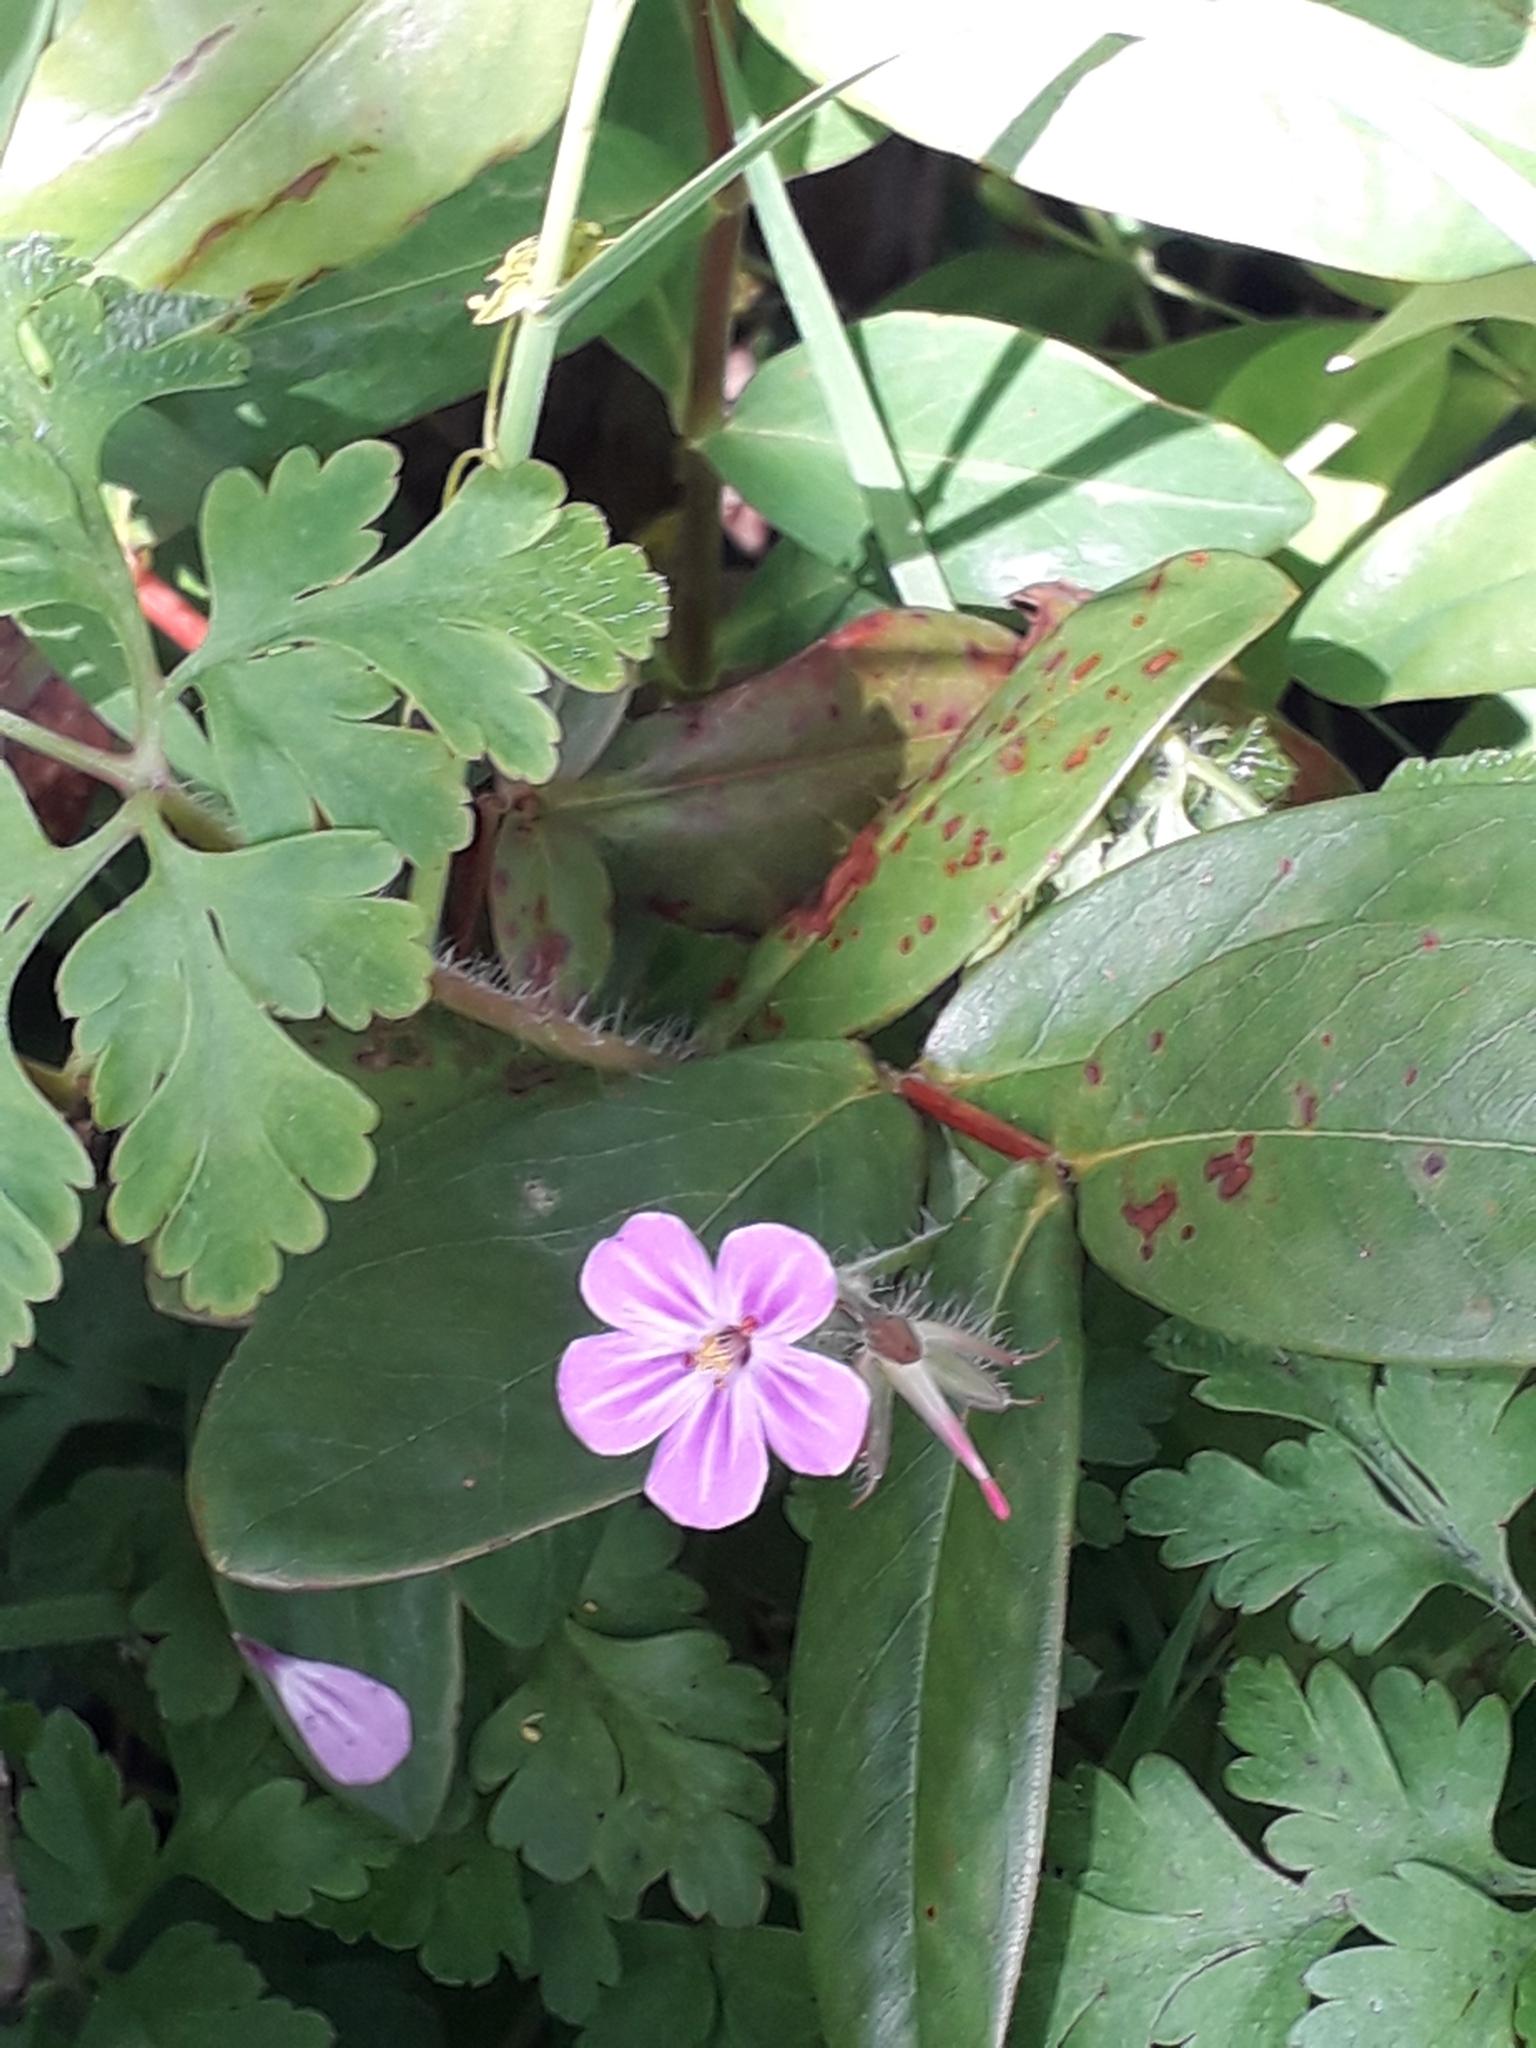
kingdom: Plantae
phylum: Tracheophyta
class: Magnoliopsida
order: Geraniales
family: Geraniaceae
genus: Geranium
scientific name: Geranium robertianum
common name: Herb-robert
